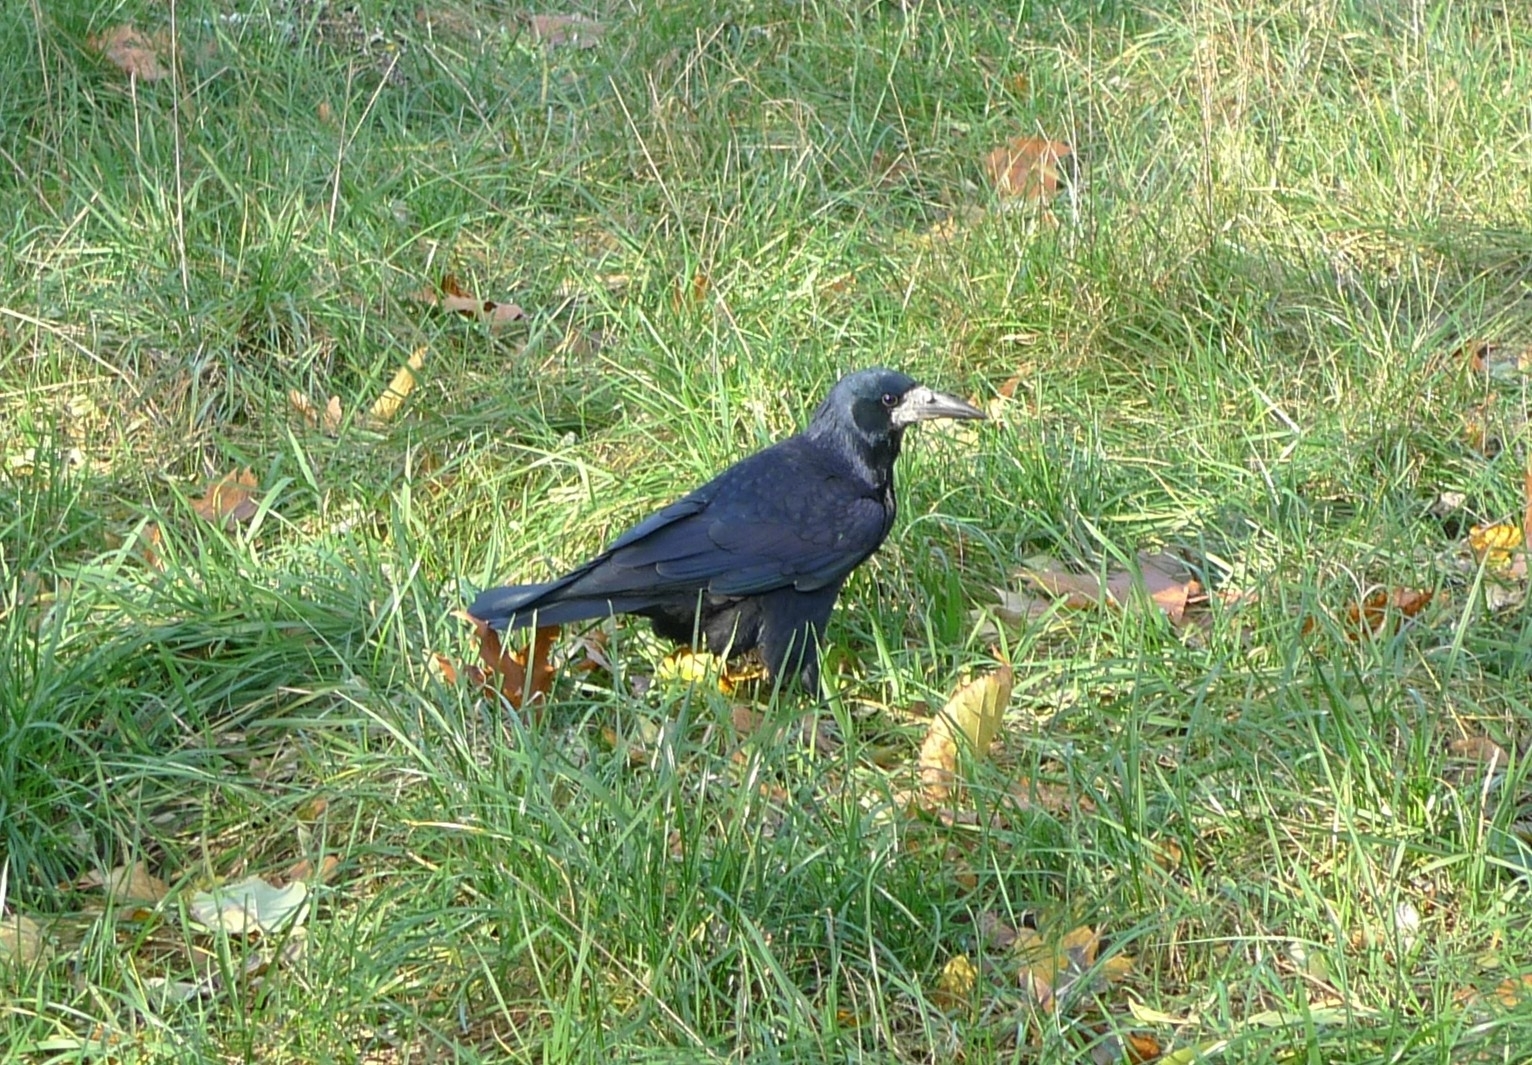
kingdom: Animalia
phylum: Chordata
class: Aves
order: Passeriformes
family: Corvidae
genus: Corvus
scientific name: Corvus frugilegus
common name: Rook
